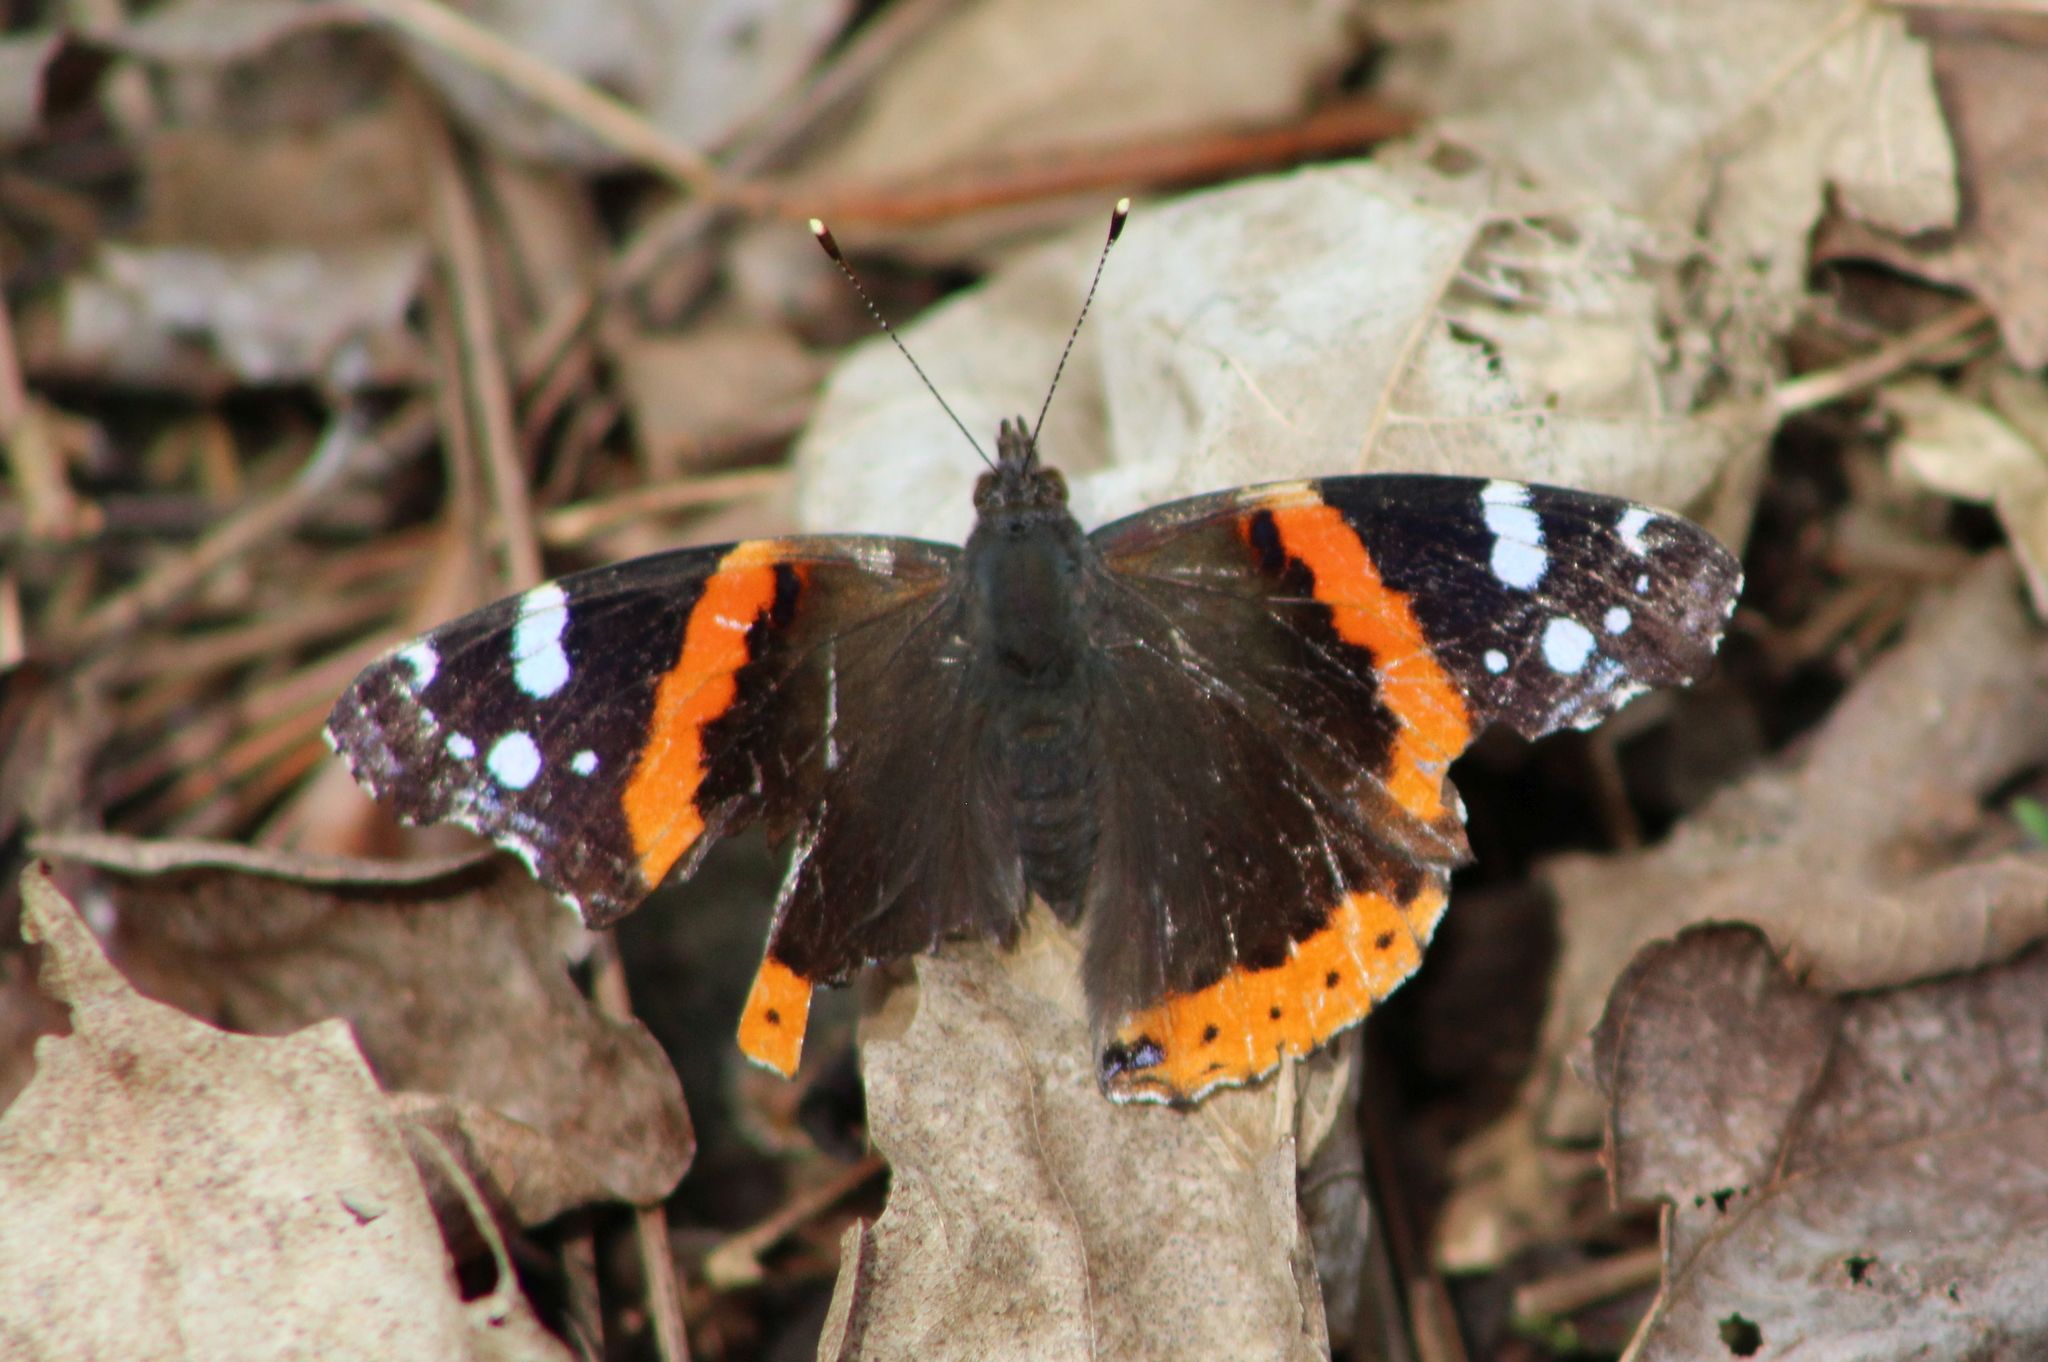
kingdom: Animalia
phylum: Arthropoda
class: Insecta
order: Lepidoptera
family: Nymphalidae
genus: Vanessa
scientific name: Vanessa atalanta
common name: Red admiral
